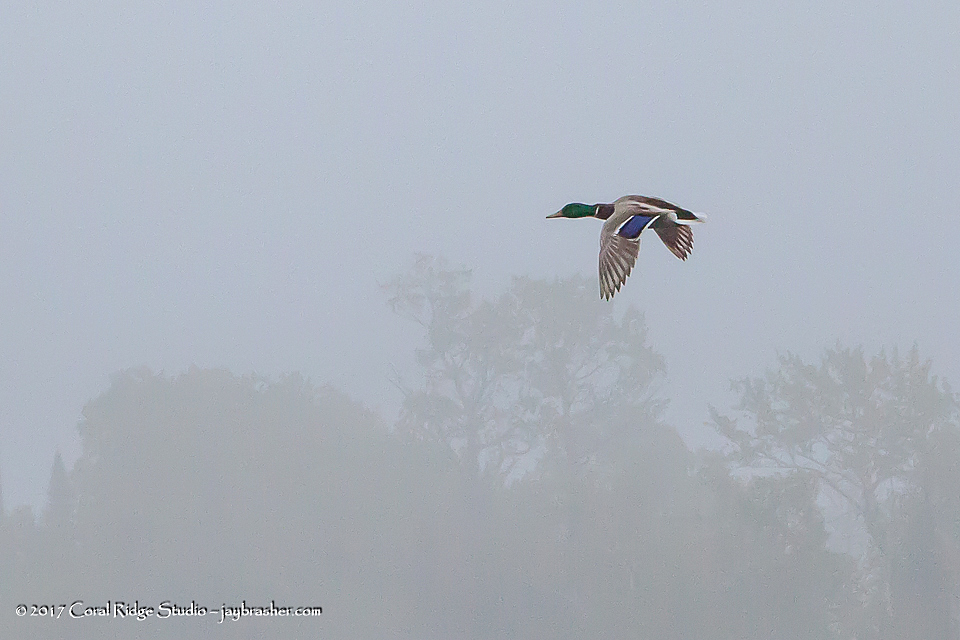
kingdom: Animalia
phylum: Chordata
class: Aves
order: Anseriformes
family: Anatidae
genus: Anas
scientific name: Anas platyrhynchos
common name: Mallard
